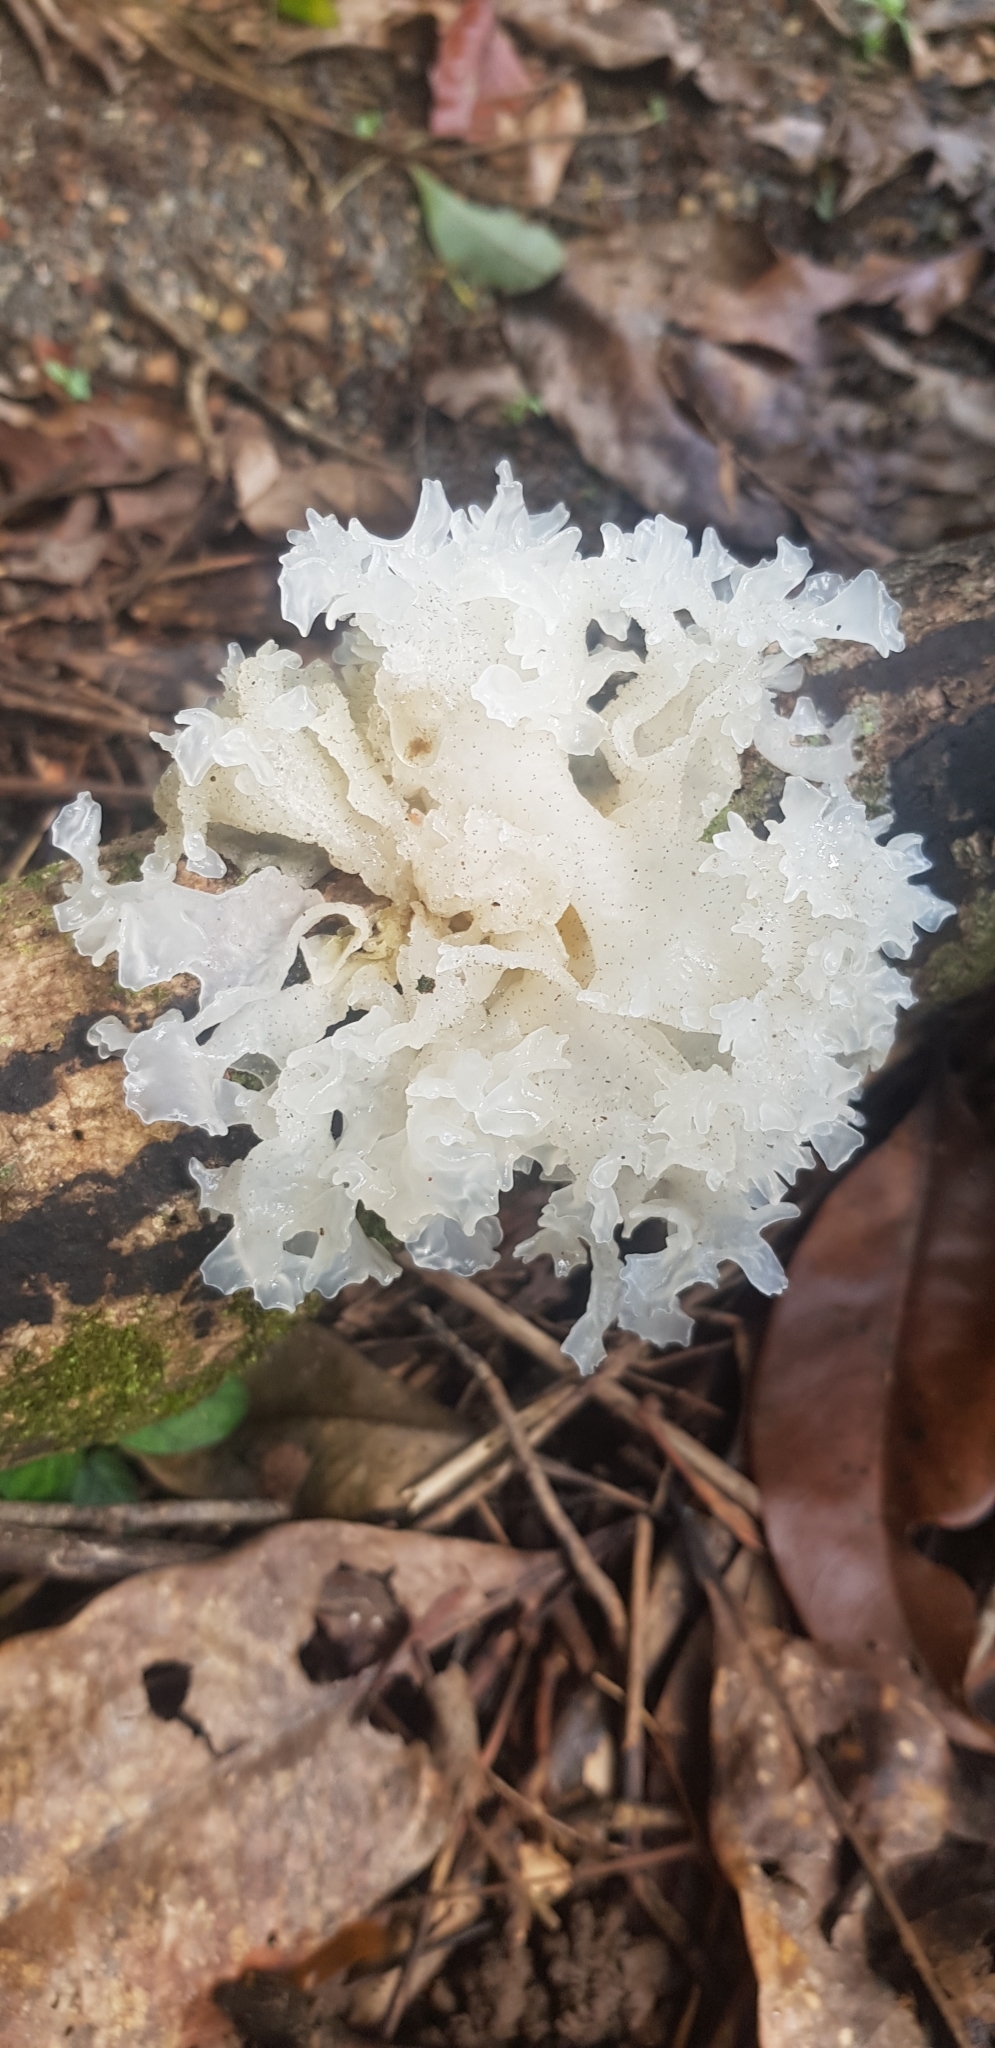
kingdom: Fungi
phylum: Basidiomycota
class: Tremellomycetes
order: Tremellales
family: Tremellaceae
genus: Tremella
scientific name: Tremella fuciformis
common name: Snow fungus
